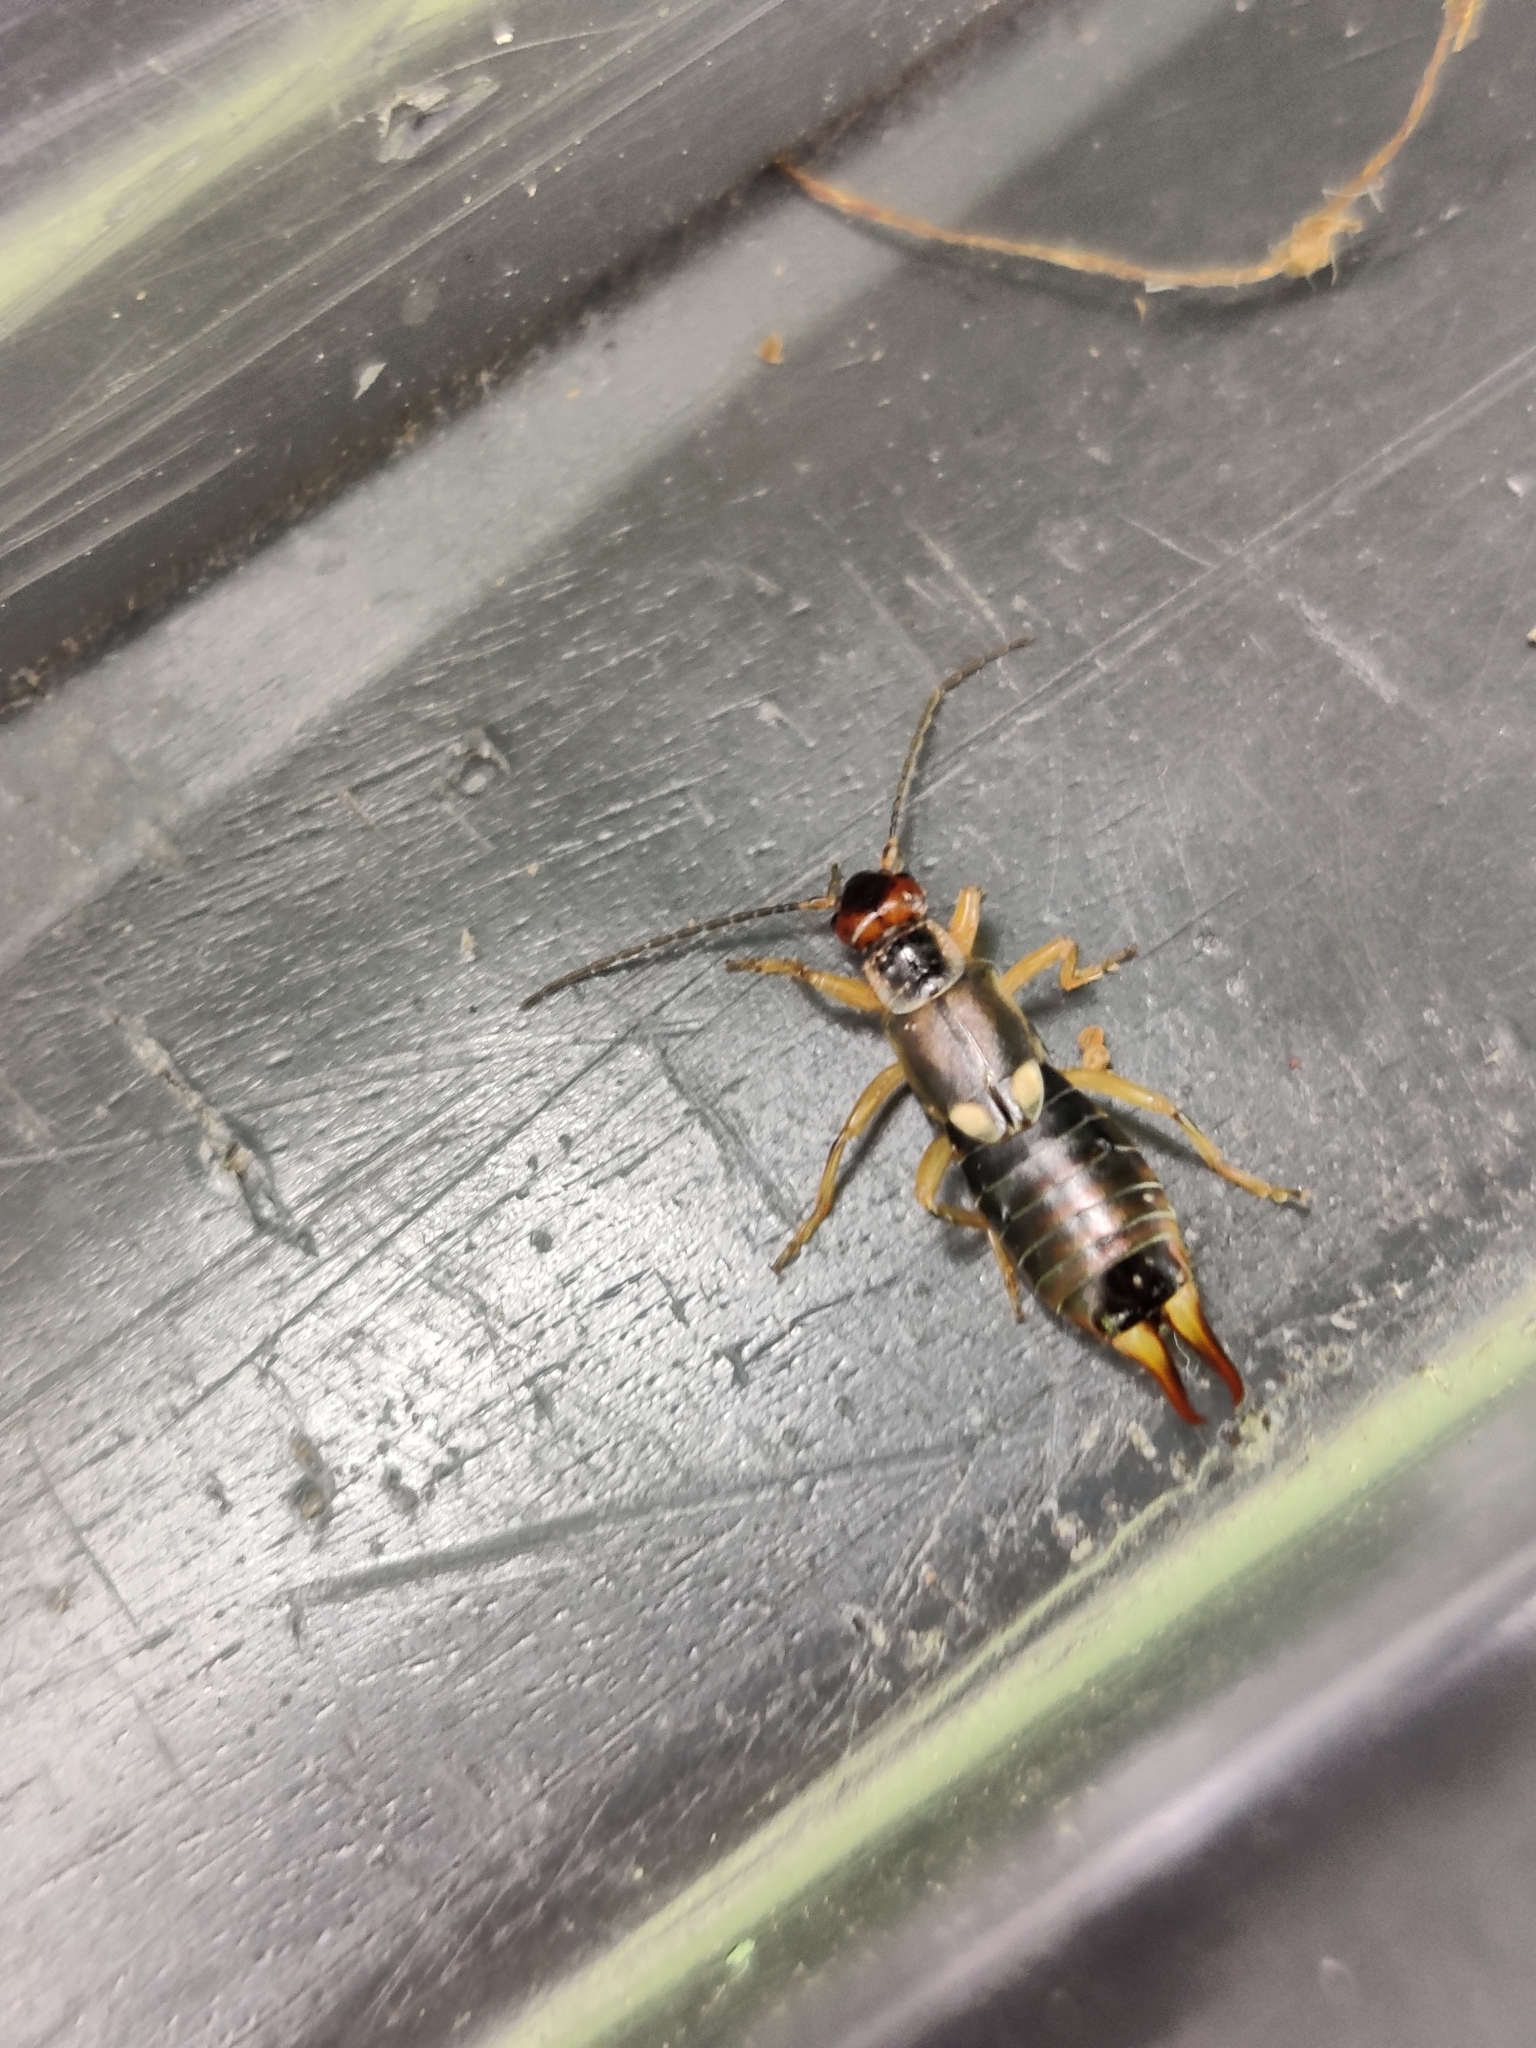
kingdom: Animalia
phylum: Arthropoda
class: Insecta
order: Dermaptera
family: Forficulidae
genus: Forficula
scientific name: Forficula
